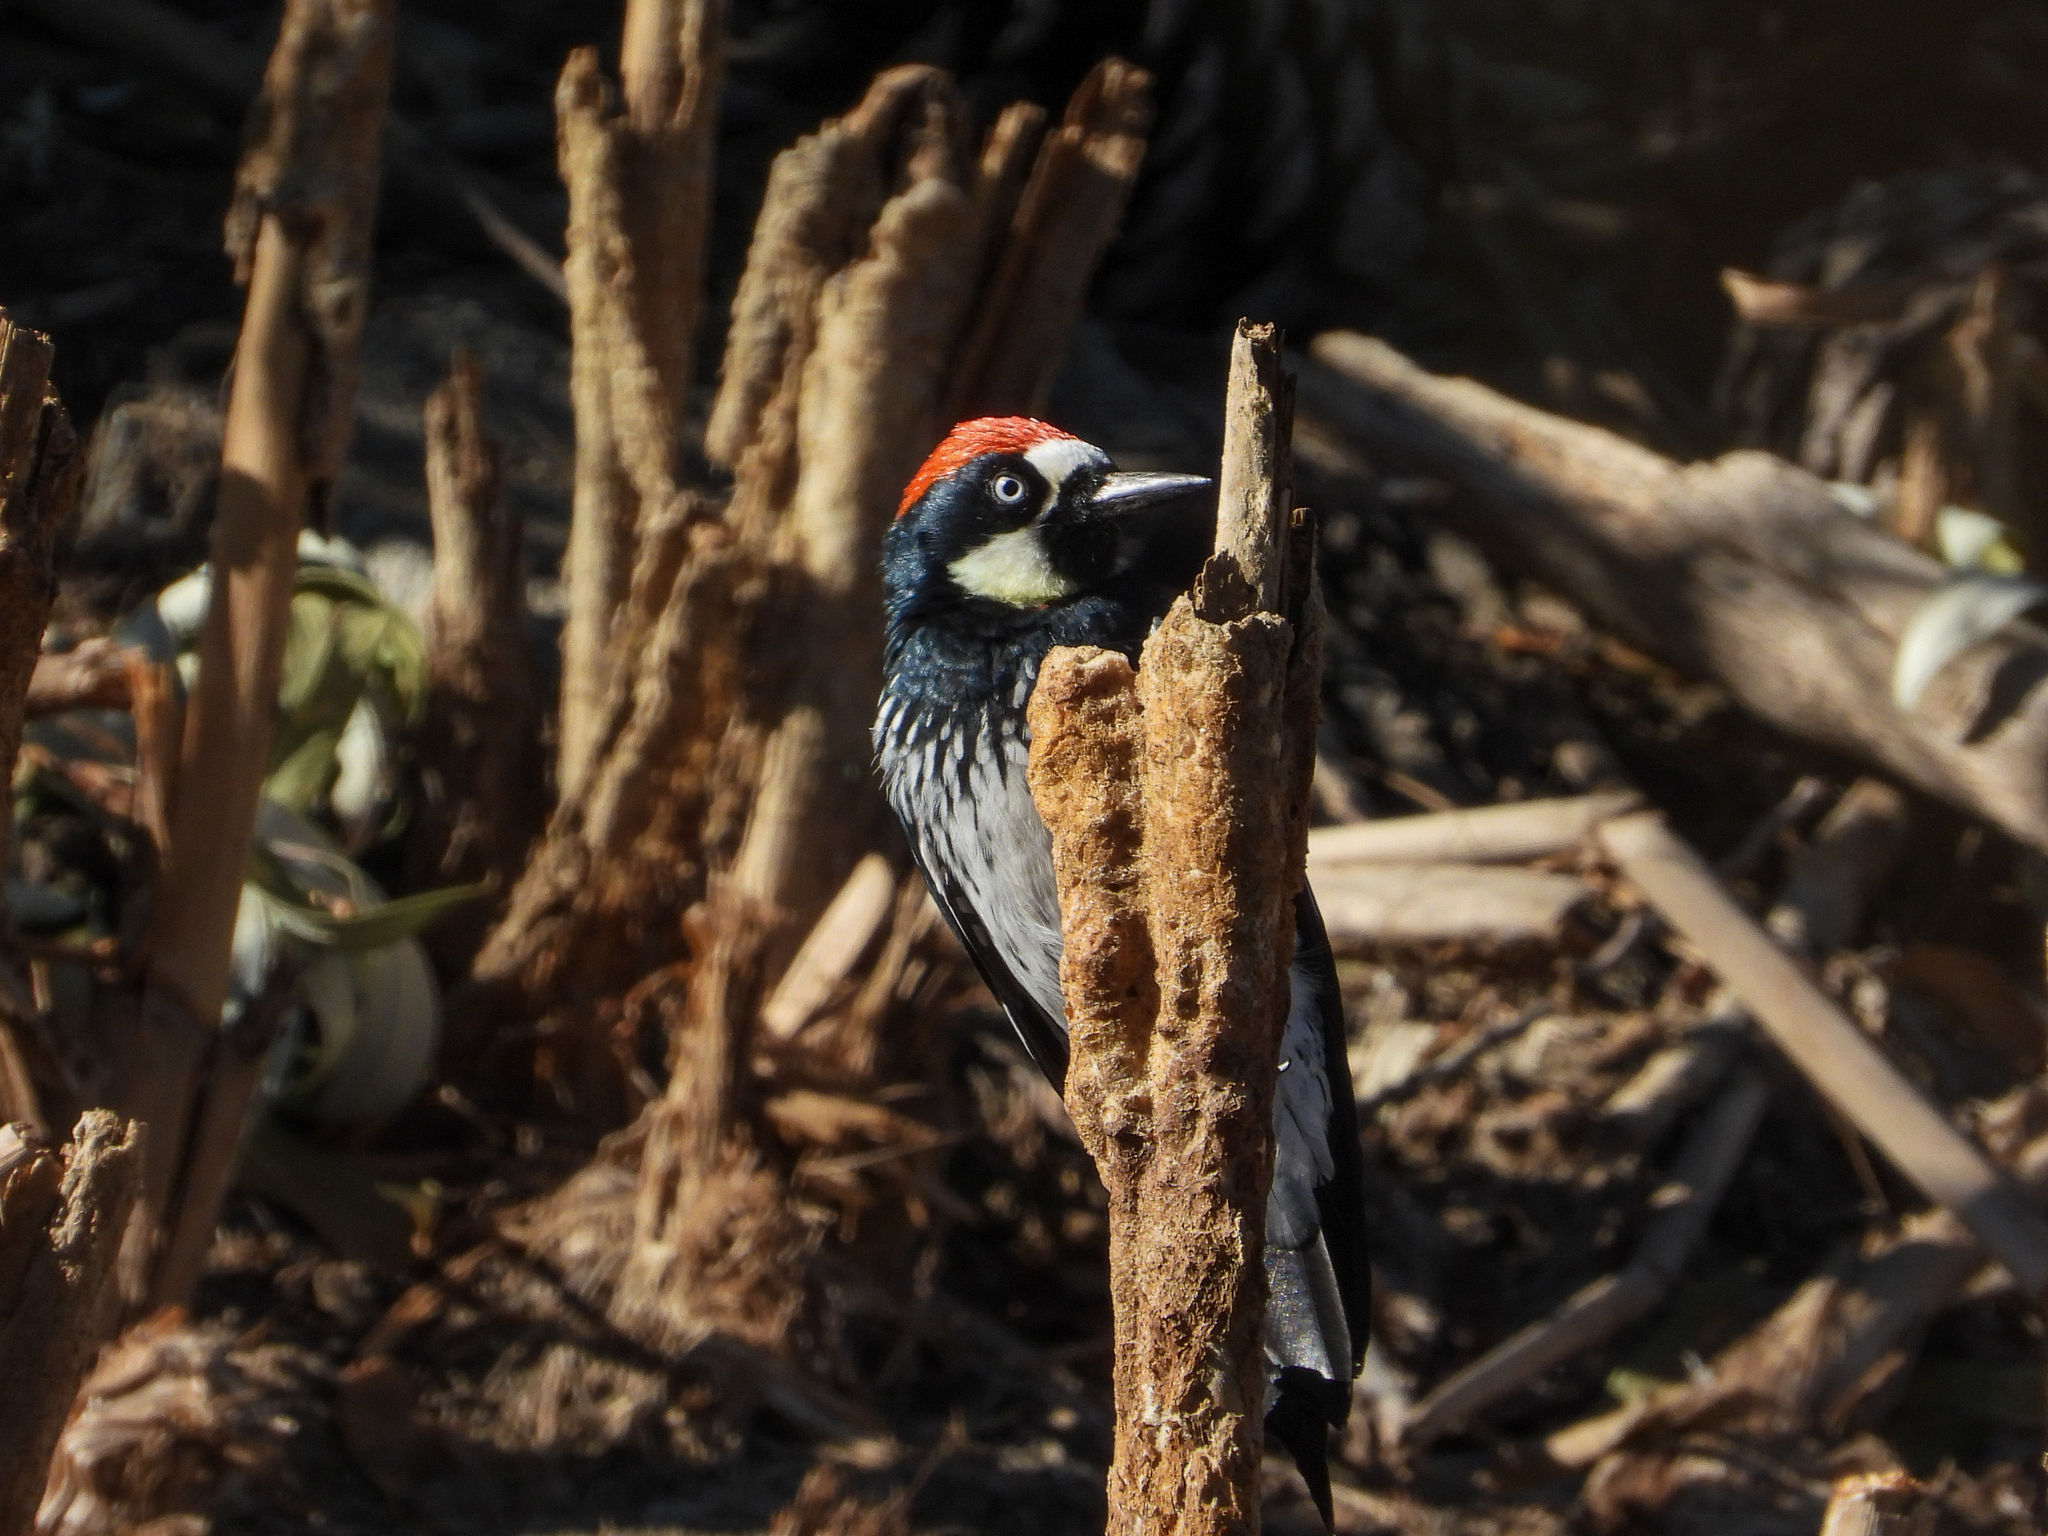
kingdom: Animalia
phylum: Chordata
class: Aves
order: Piciformes
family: Picidae
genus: Melanerpes
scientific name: Melanerpes formicivorus
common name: Acorn woodpecker
